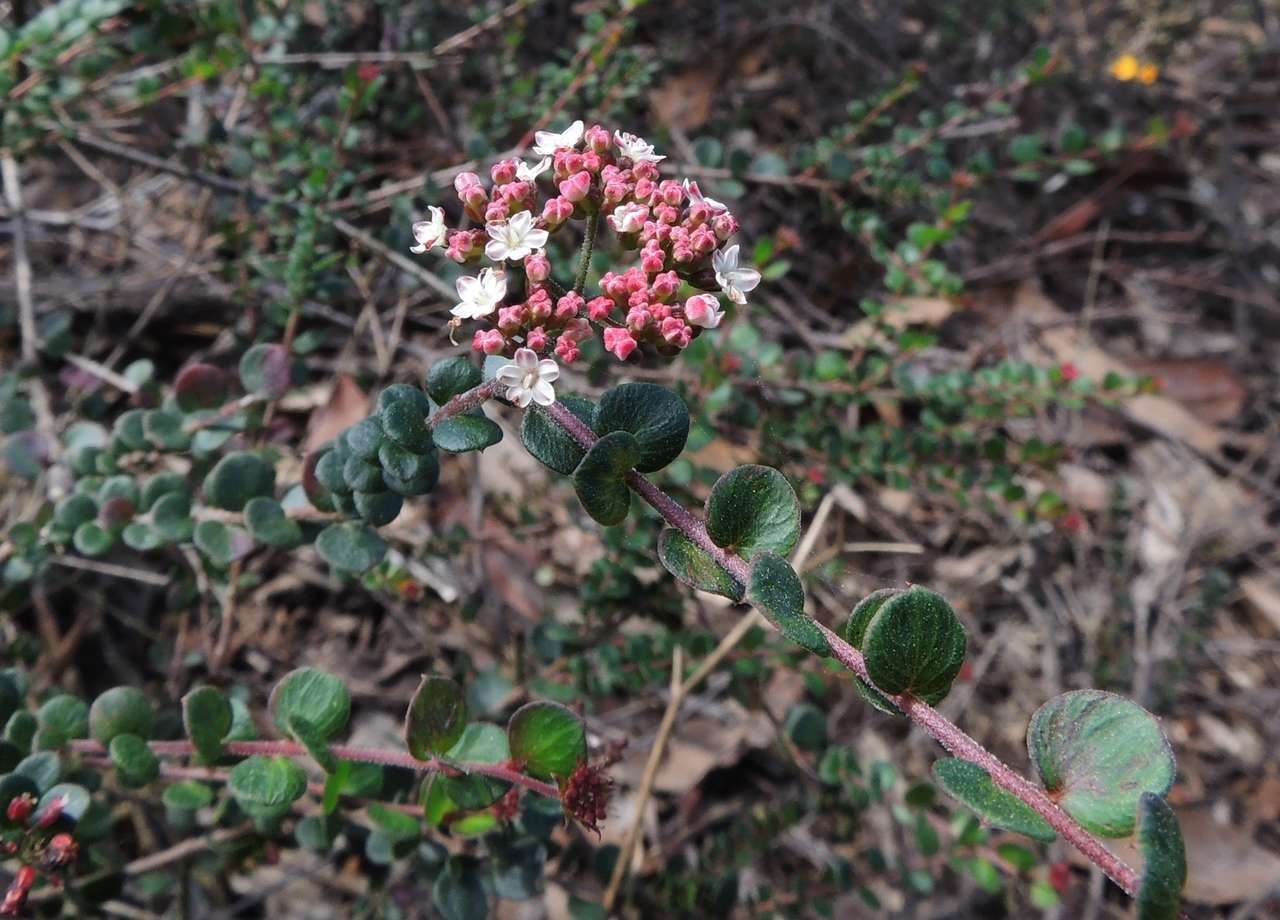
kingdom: Plantae
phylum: Tracheophyta
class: Magnoliopsida
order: Apiales
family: Apiaceae
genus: Platysace
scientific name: Platysace lanceolata
